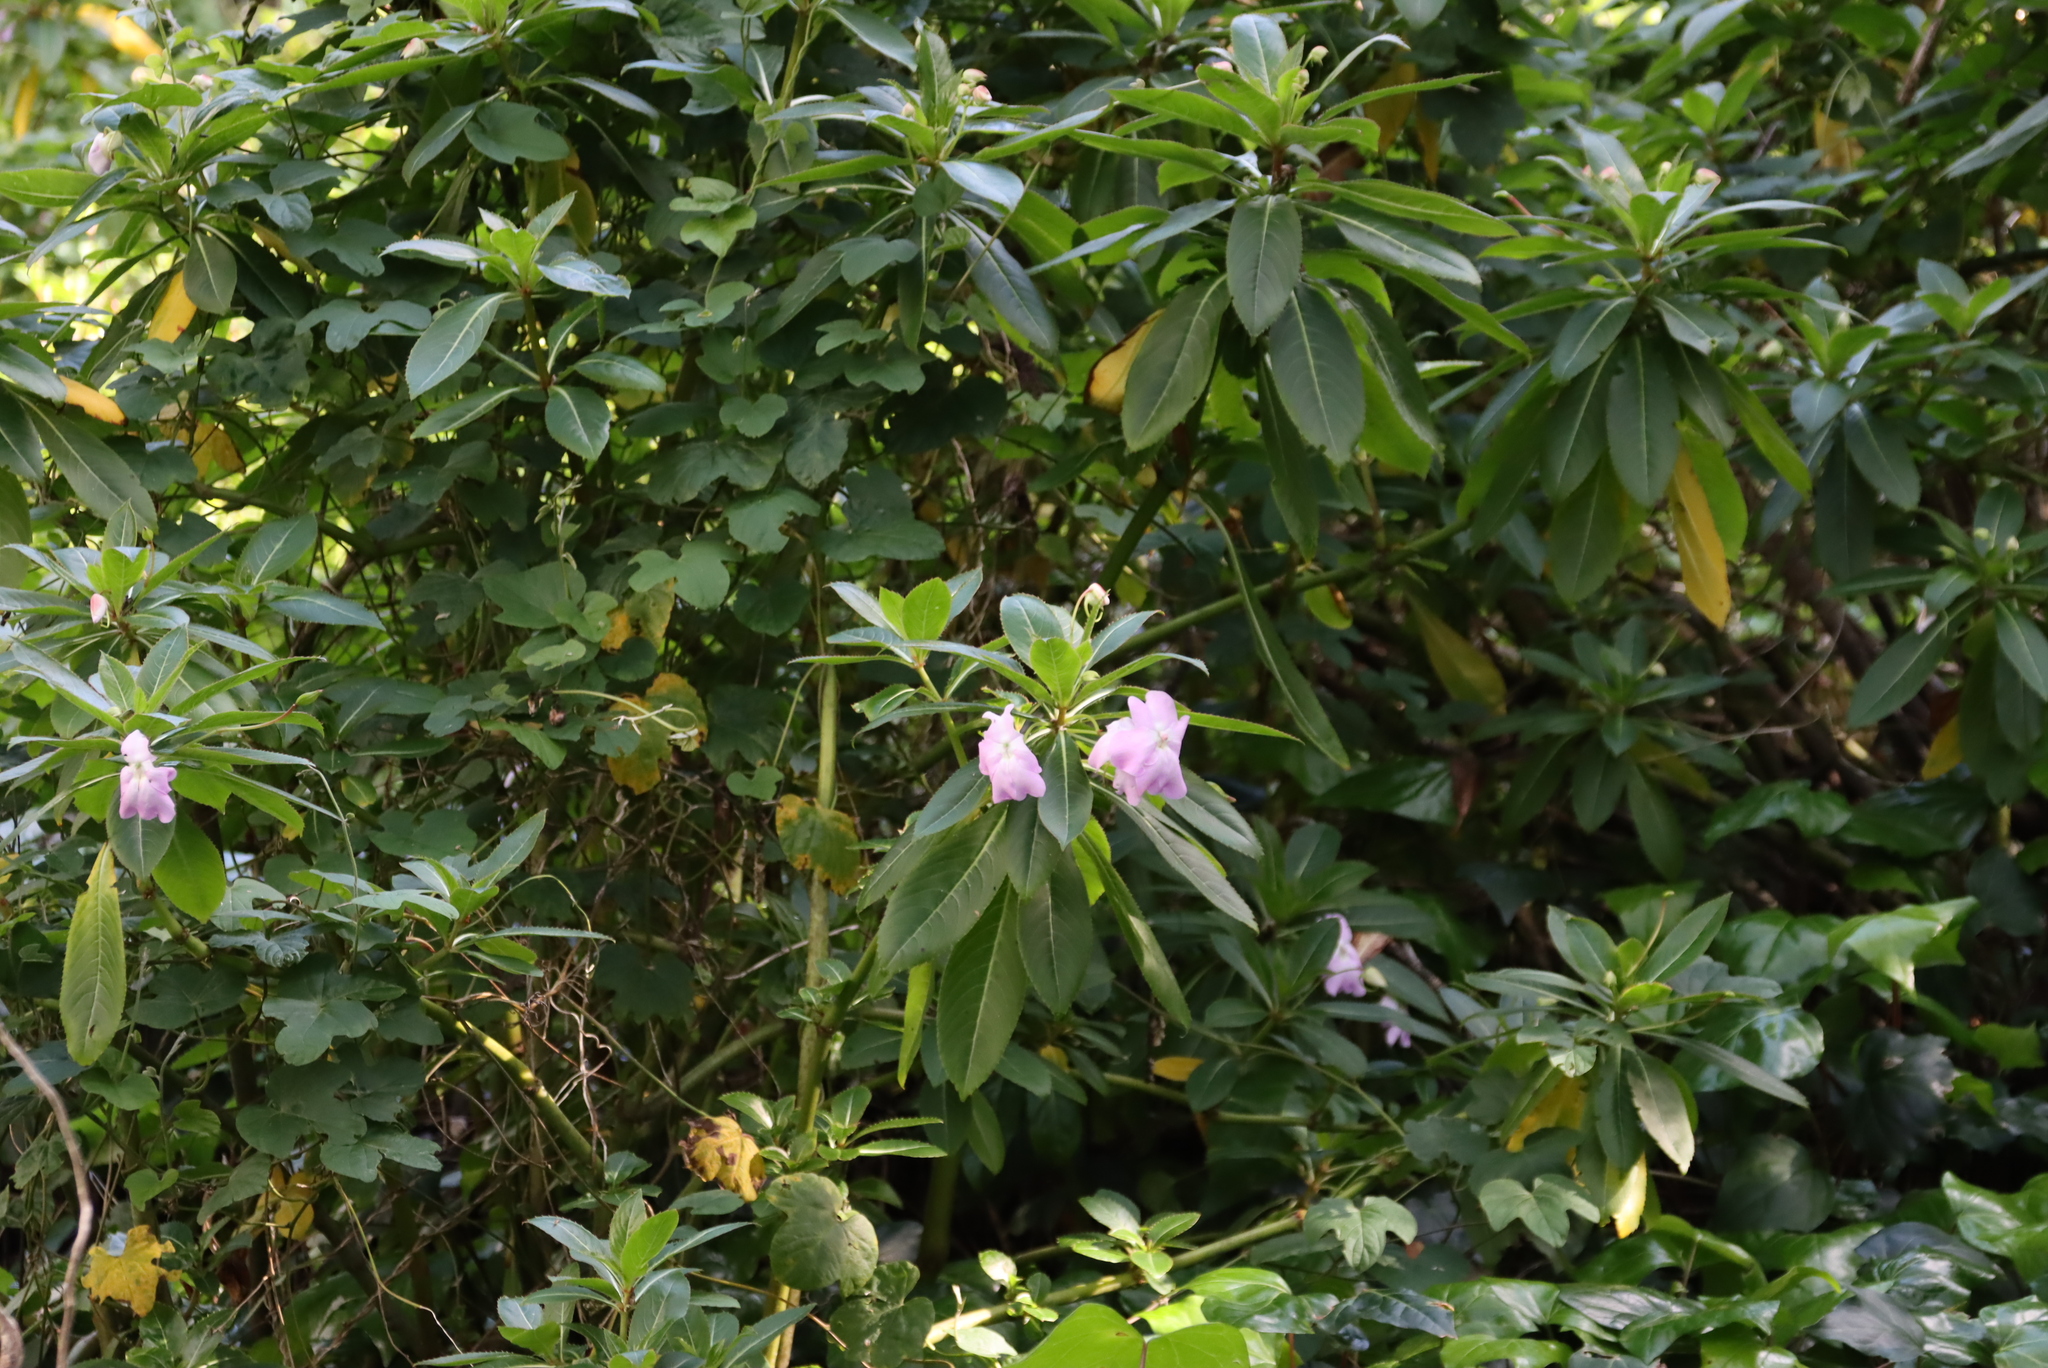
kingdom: Plantae
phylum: Tracheophyta
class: Magnoliopsida
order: Ericales
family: Balsaminaceae
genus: Impatiens
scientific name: Impatiens sodenii
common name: Oliver's touch-me-not
